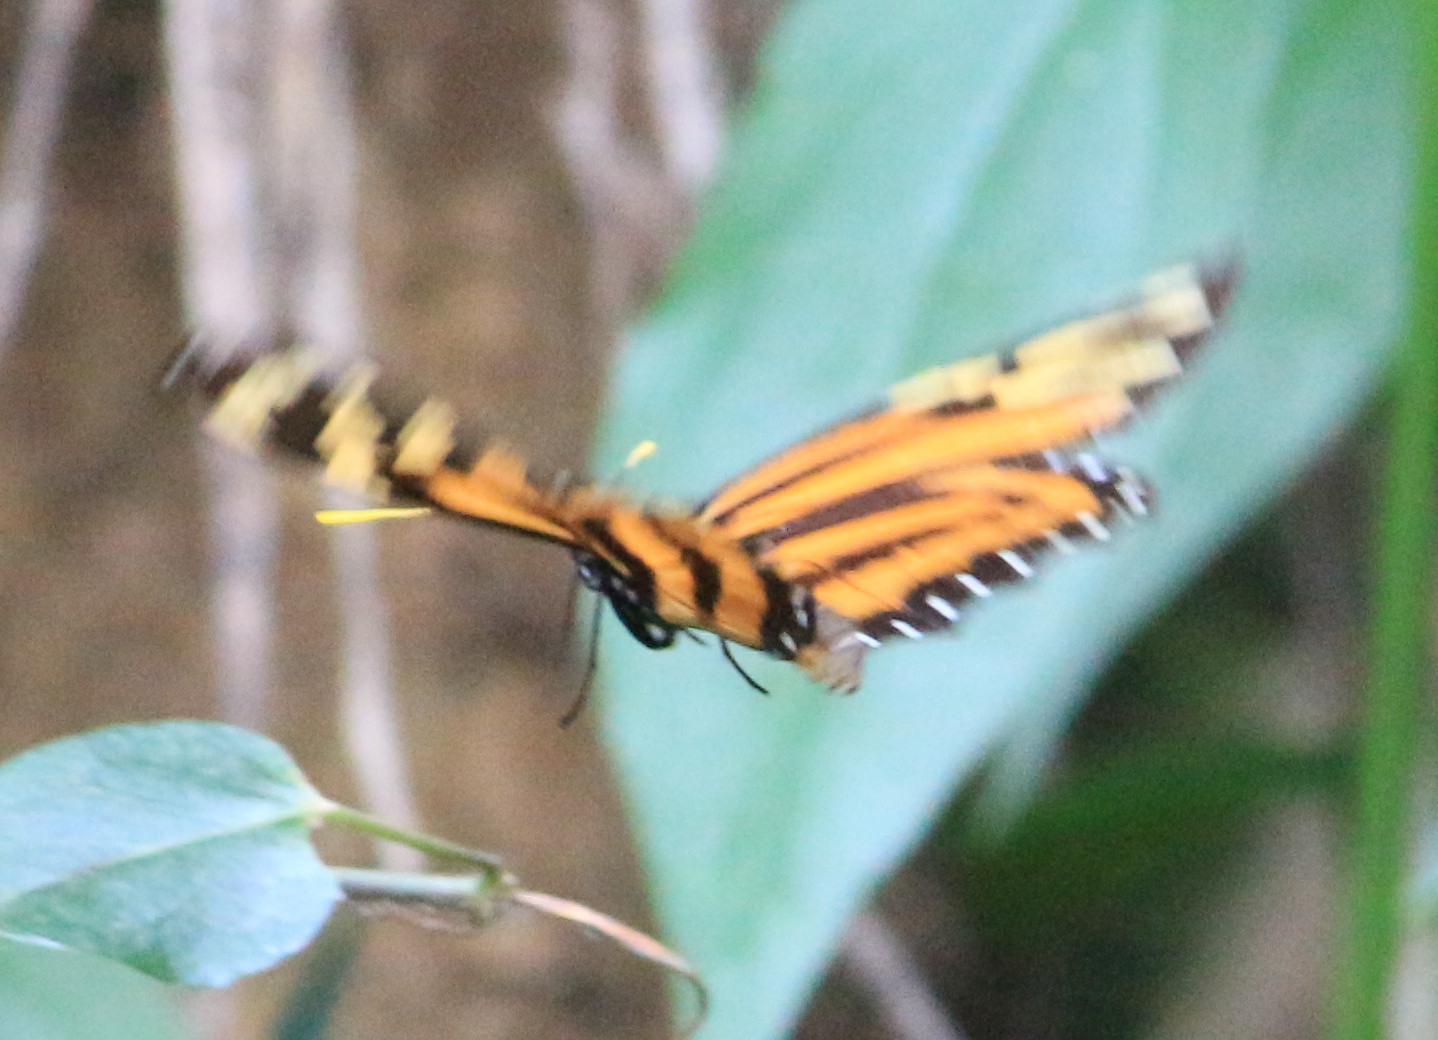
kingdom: Animalia
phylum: Arthropoda
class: Insecta
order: Lepidoptera
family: Nymphalidae
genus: Lycorea
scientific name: Lycorea cleobaea
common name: Tiger mimic-queen
